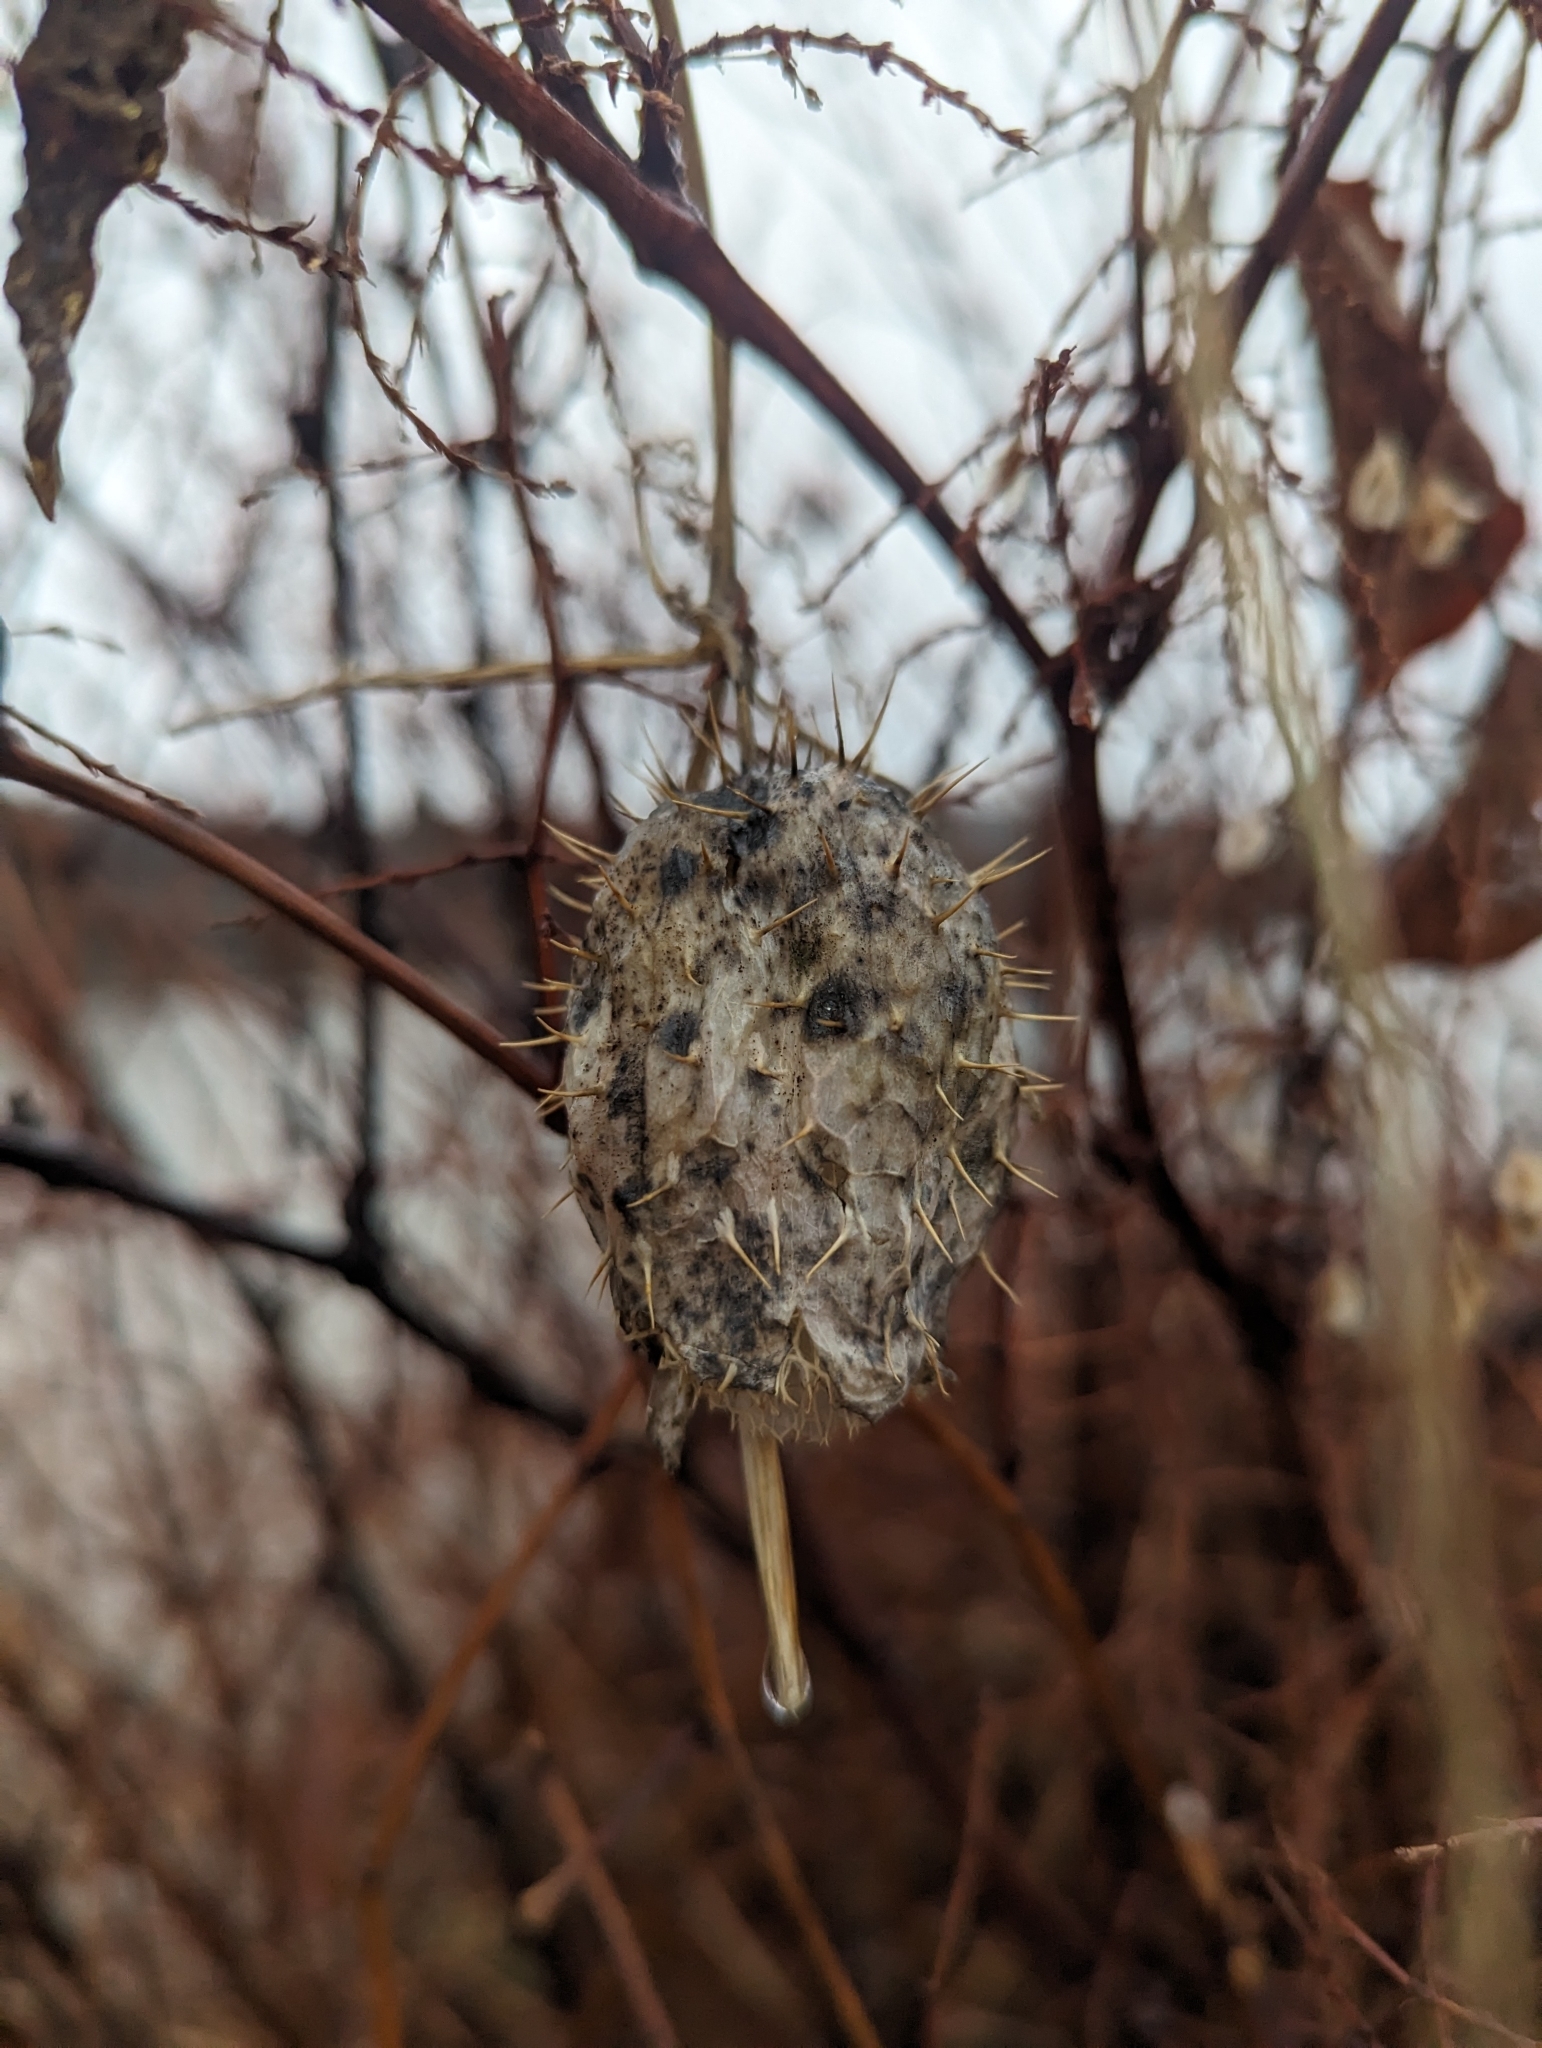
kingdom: Plantae
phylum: Tracheophyta
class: Magnoliopsida
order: Cucurbitales
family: Cucurbitaceae
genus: Echinocystis
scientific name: Echinocystis lobata
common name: Wild cucumber
